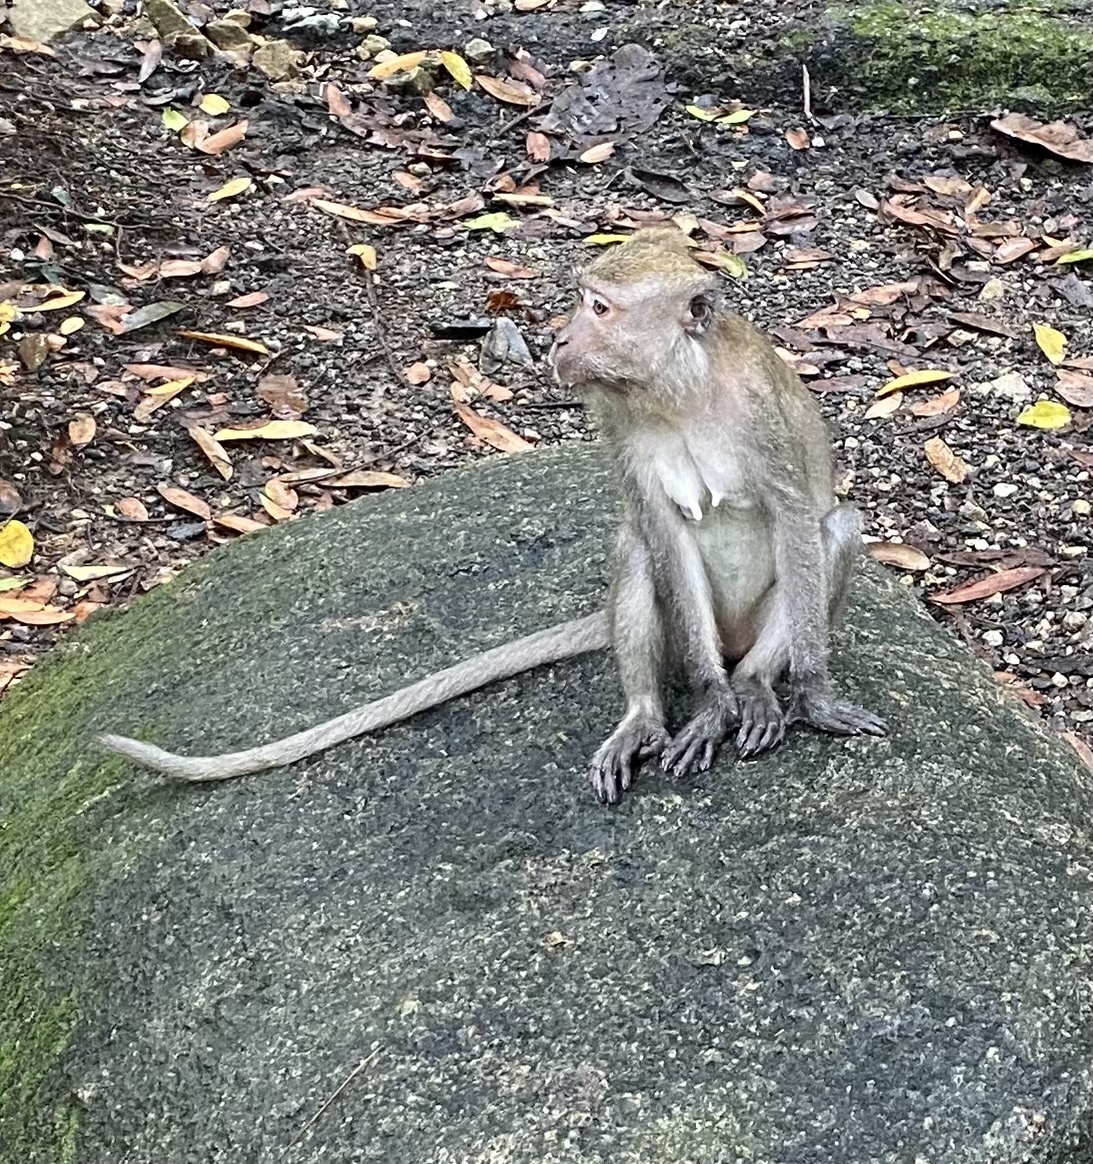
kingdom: Animalia
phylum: Chordata
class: Mammalia
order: Primates
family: Cercopithecidae
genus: Macaca
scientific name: Macaca fascicularis
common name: Crab-eating macaque
